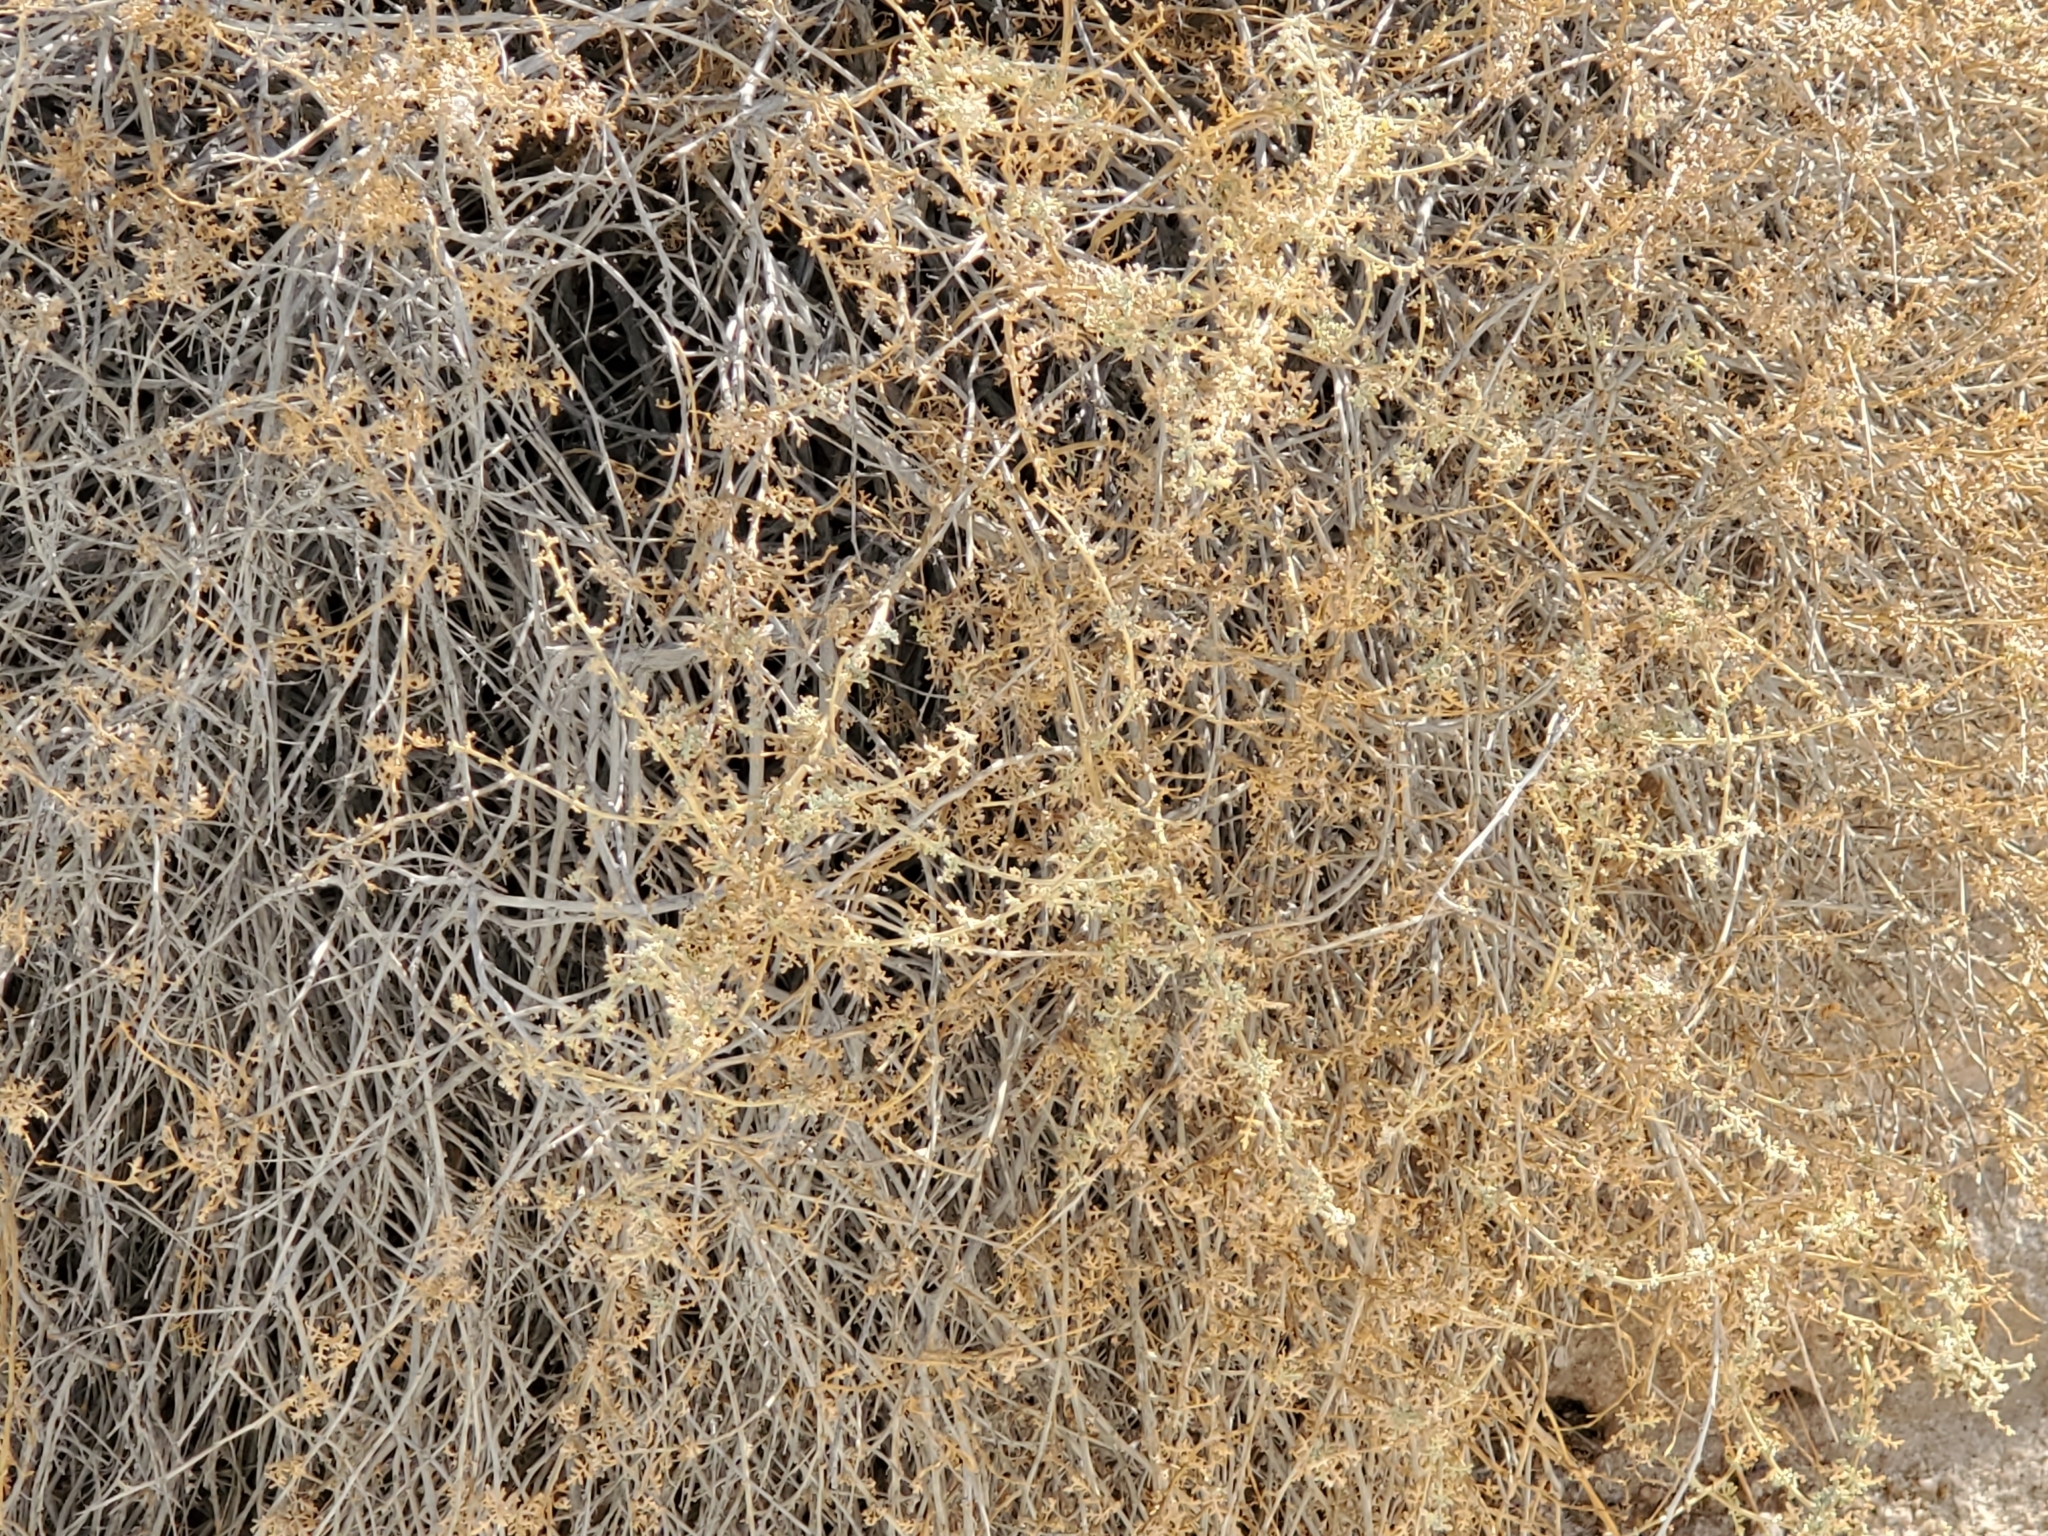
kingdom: Plantae
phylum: Tracheophyta
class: Magnoliopsida
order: Asterales
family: Asteraceae
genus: Ambrosia
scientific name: Ambrosia dumosa
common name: Bur-sage
